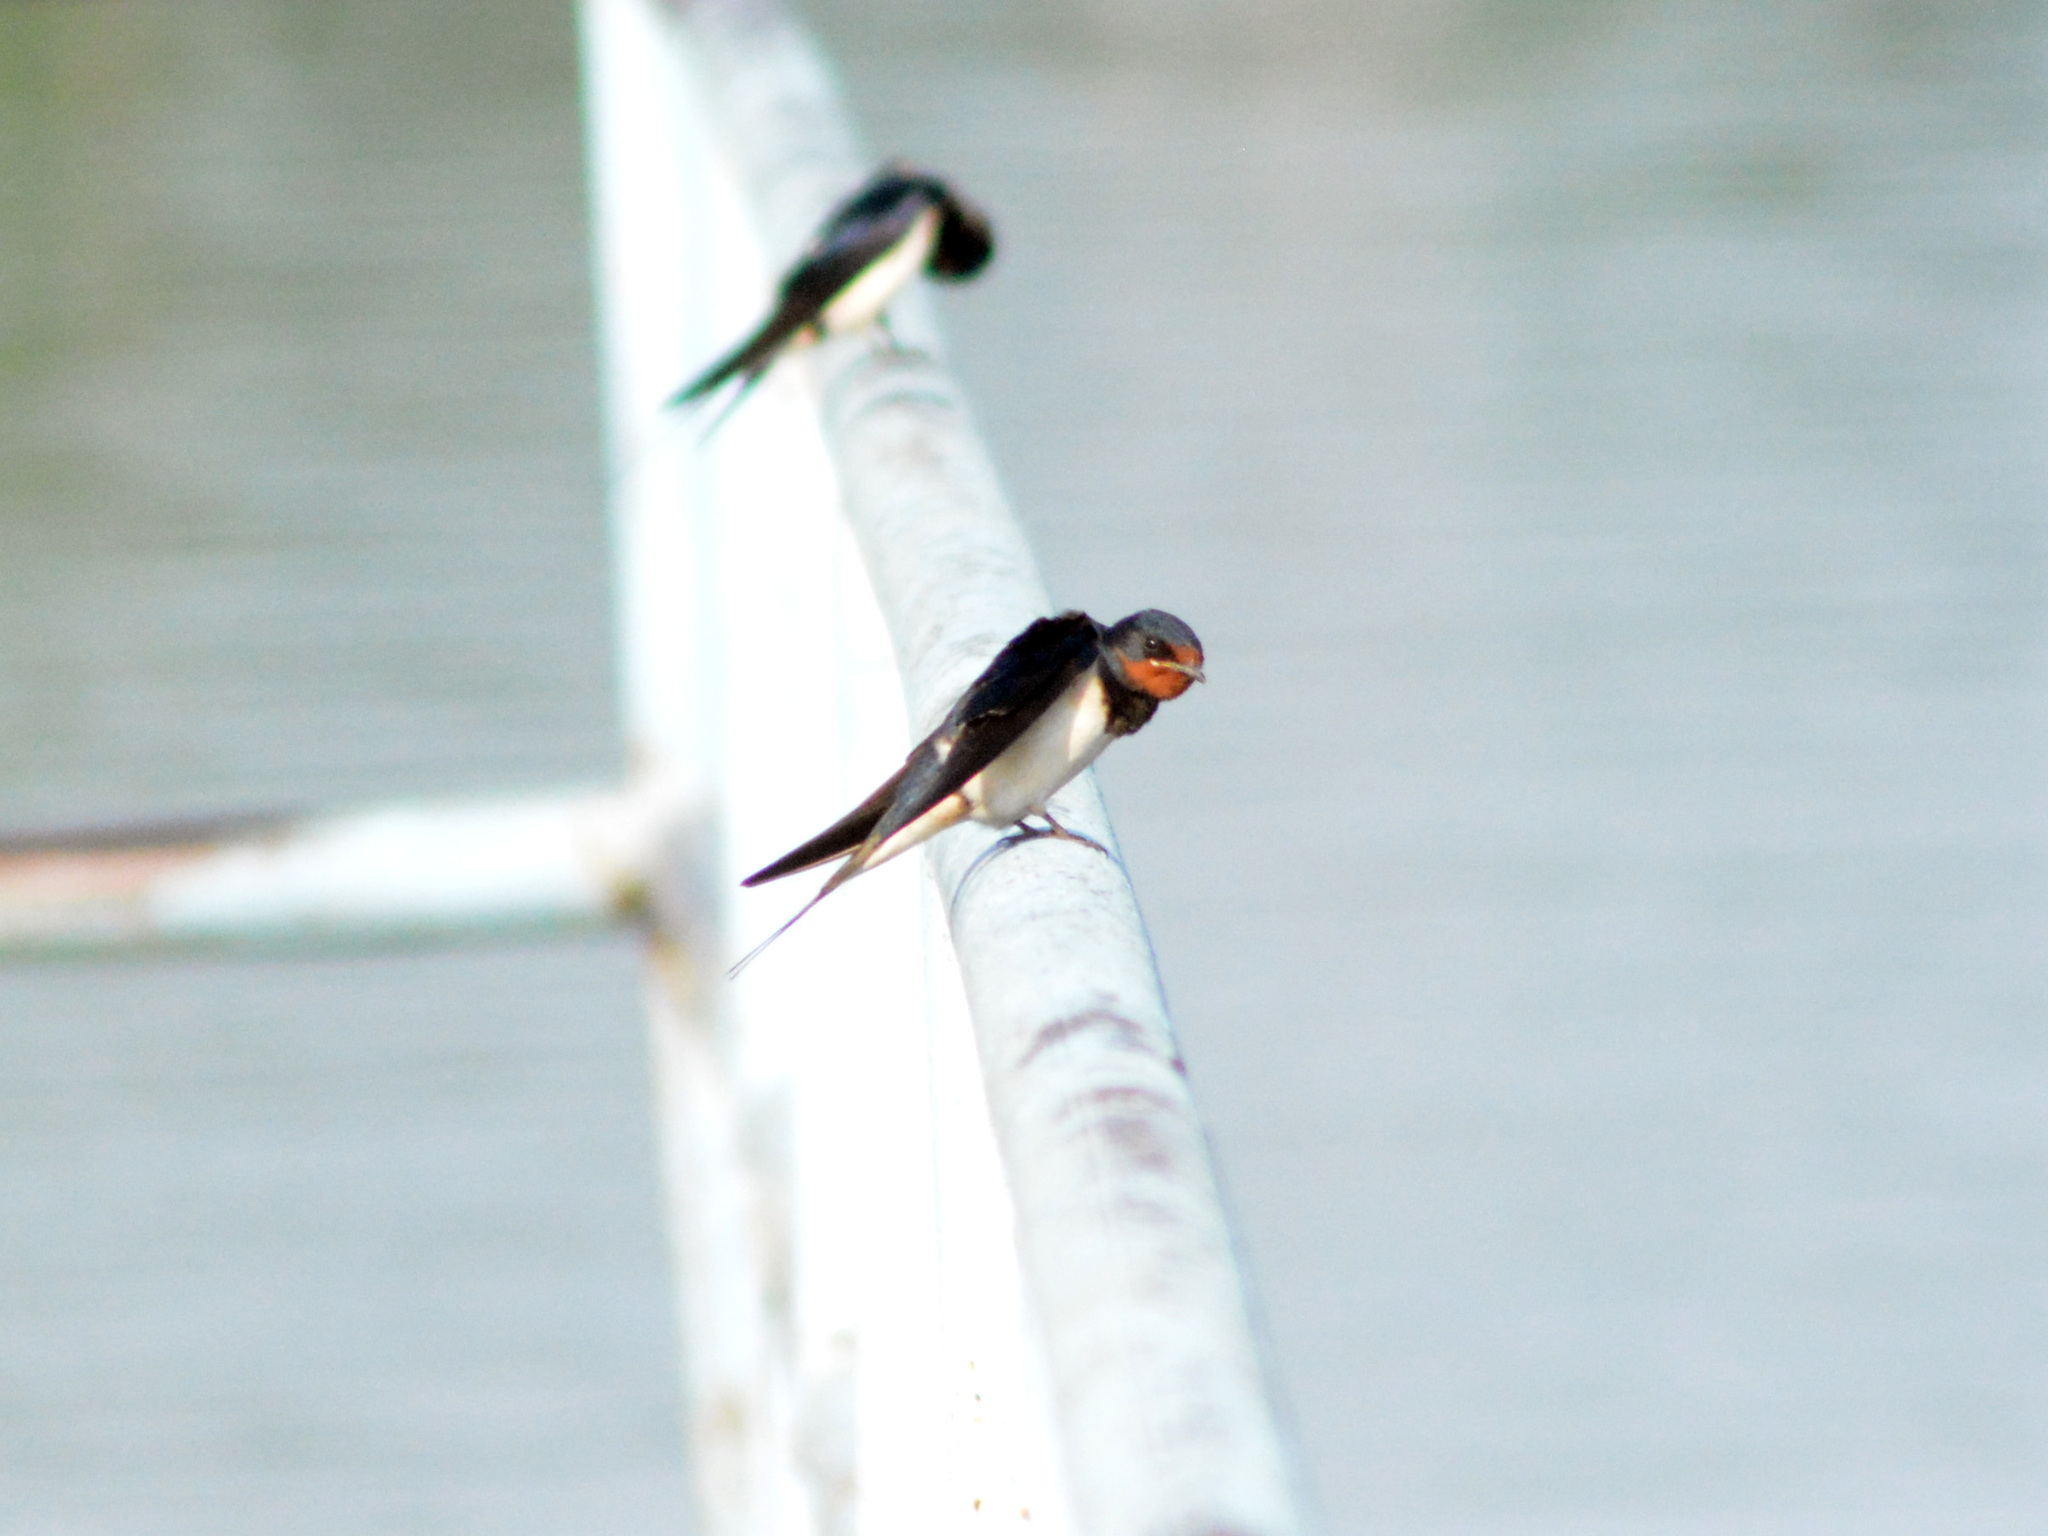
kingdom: Animalia
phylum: Chordata
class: Aves
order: Passeriformes
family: Hirundinidae
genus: Hirundo
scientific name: Hirundo rustica
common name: Barn swallow
